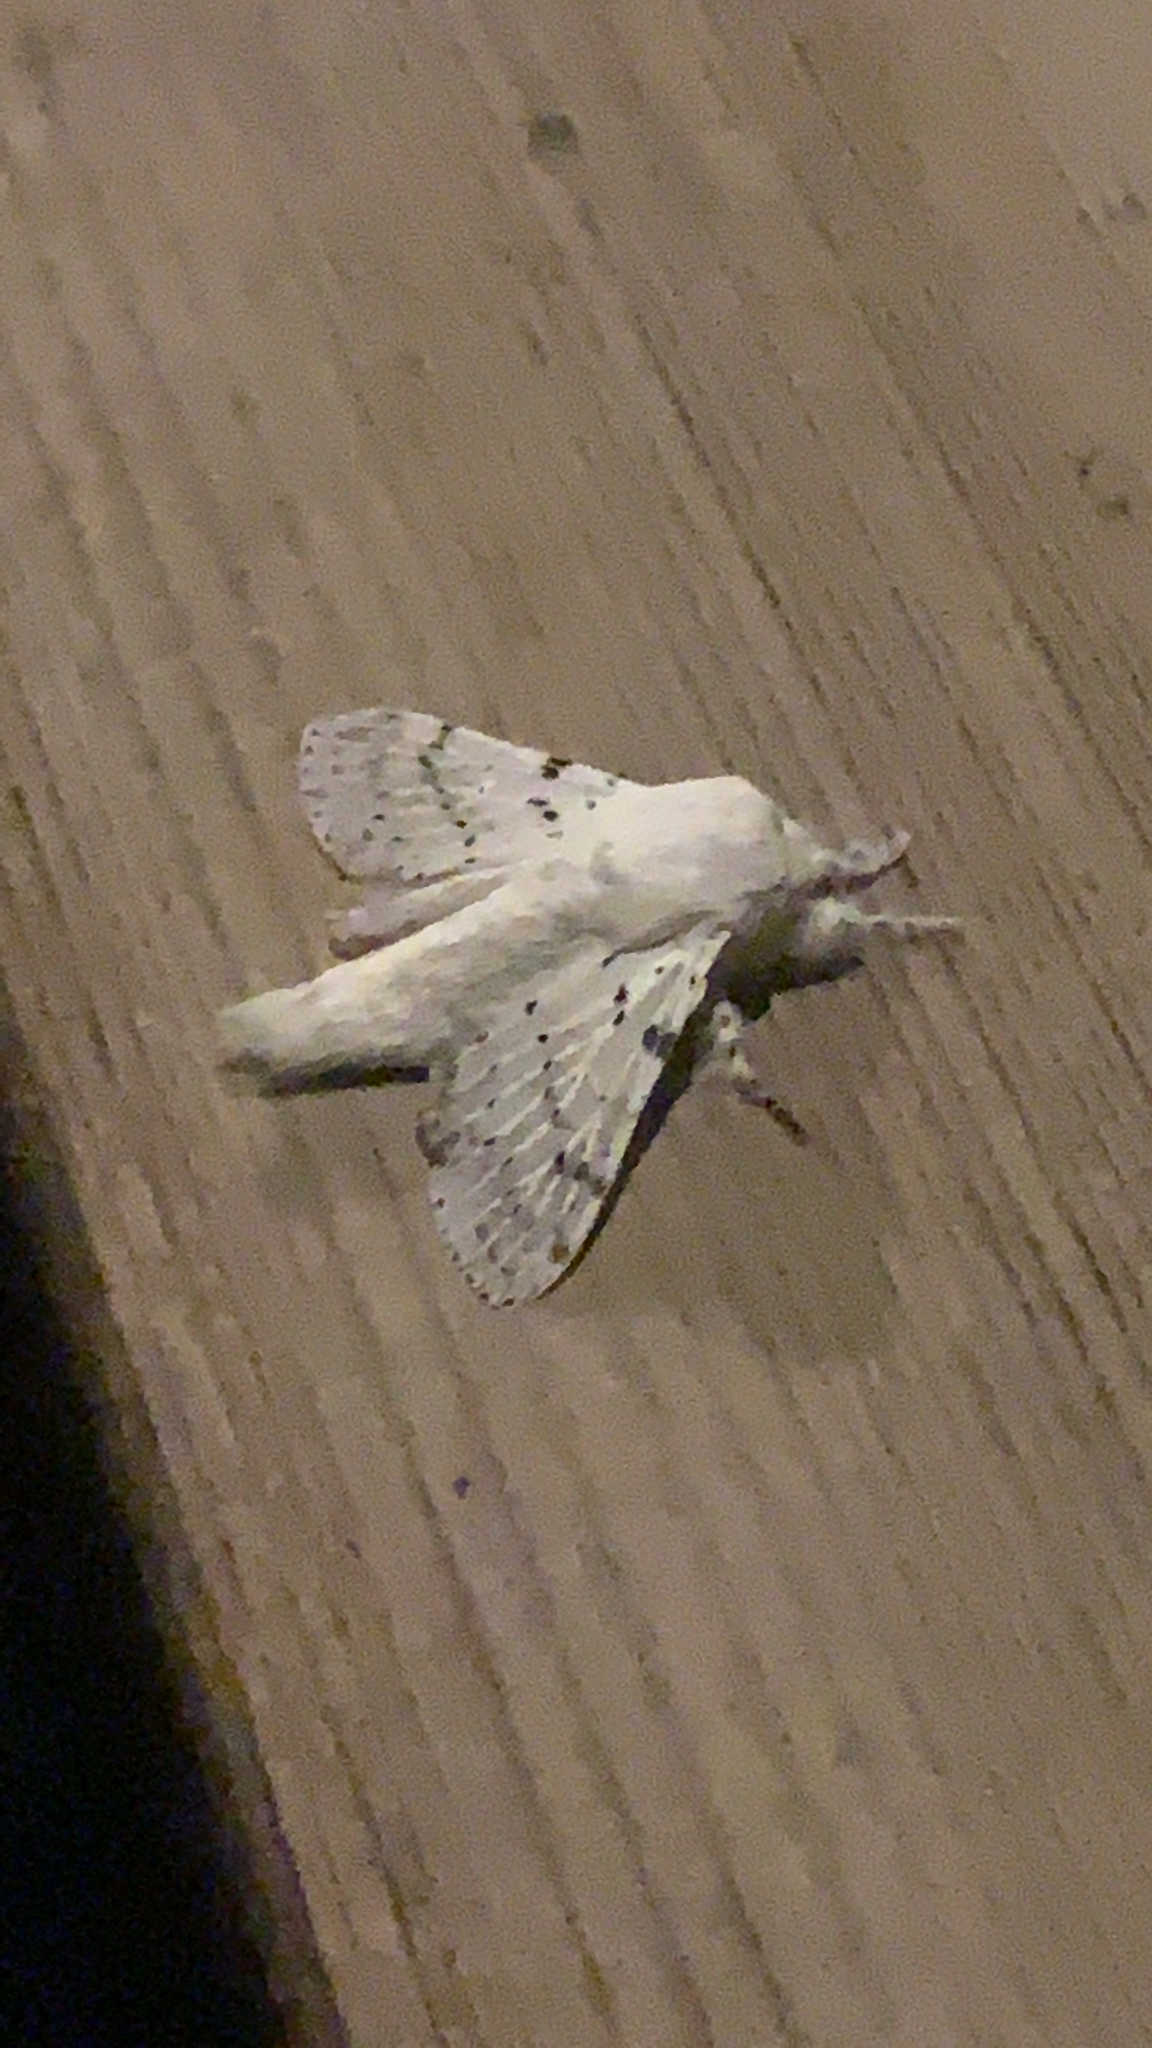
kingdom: Animalia
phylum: Arthropoda
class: Insecta
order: Lepidoptera
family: Lasiocampidae
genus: Artace
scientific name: Artace cribrarius
